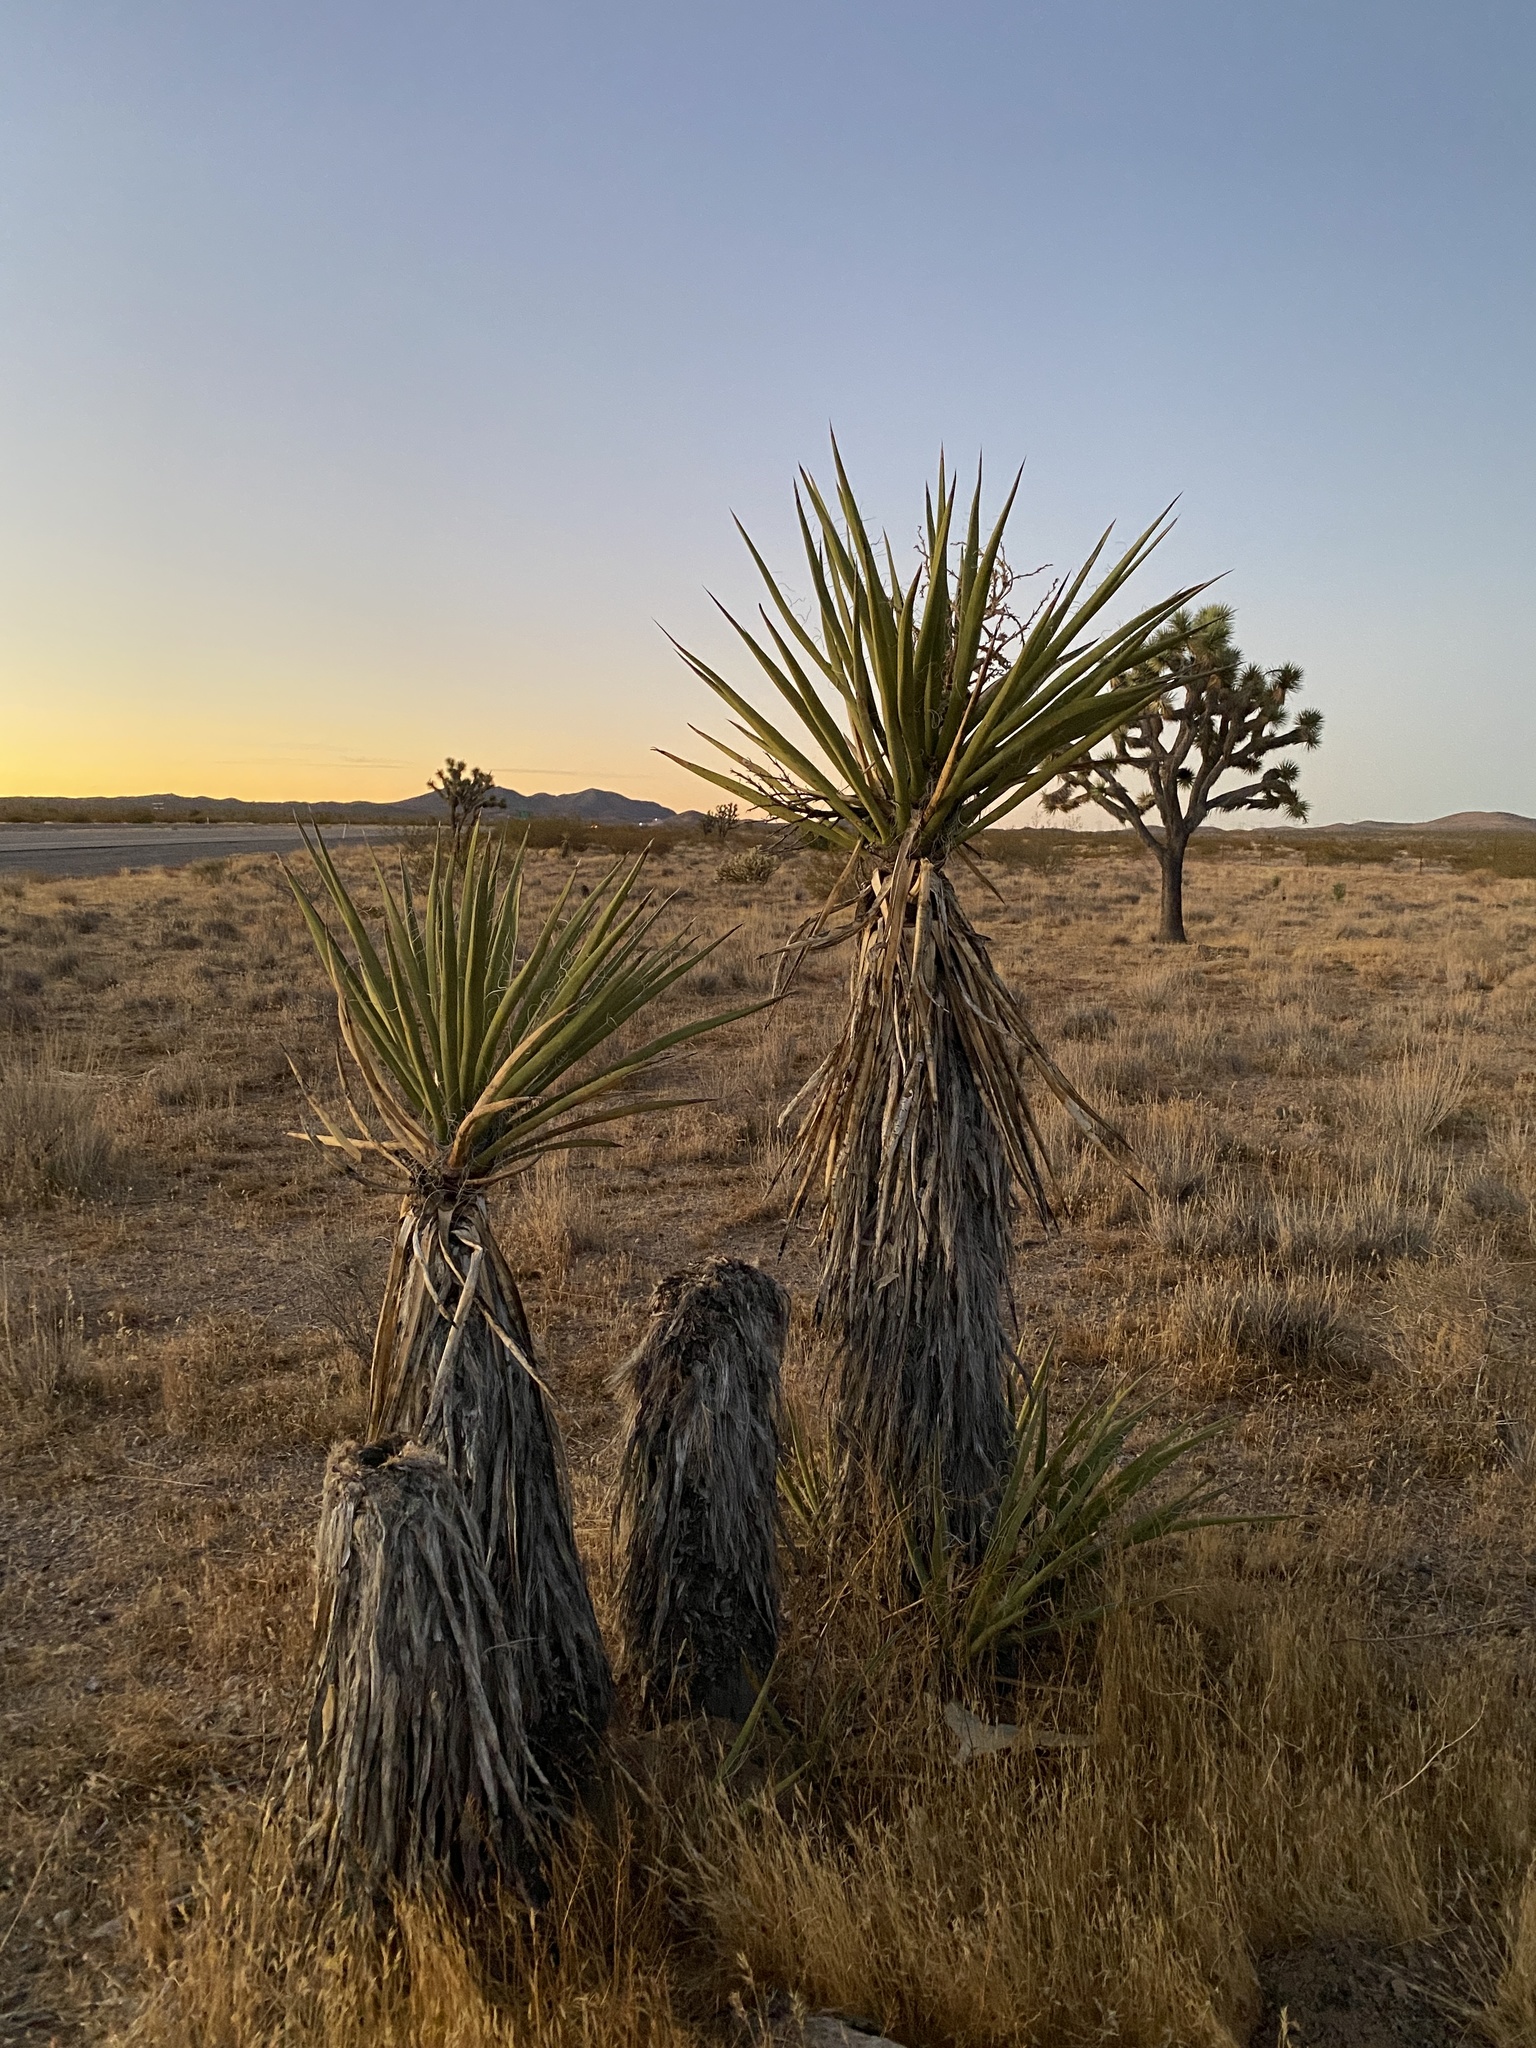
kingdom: Plantae
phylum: Tracheophyta
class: Liliopsida
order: Asparagales
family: Asparagaceae
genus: Yucca
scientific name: Yucca schidigera
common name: Mojave yucca
